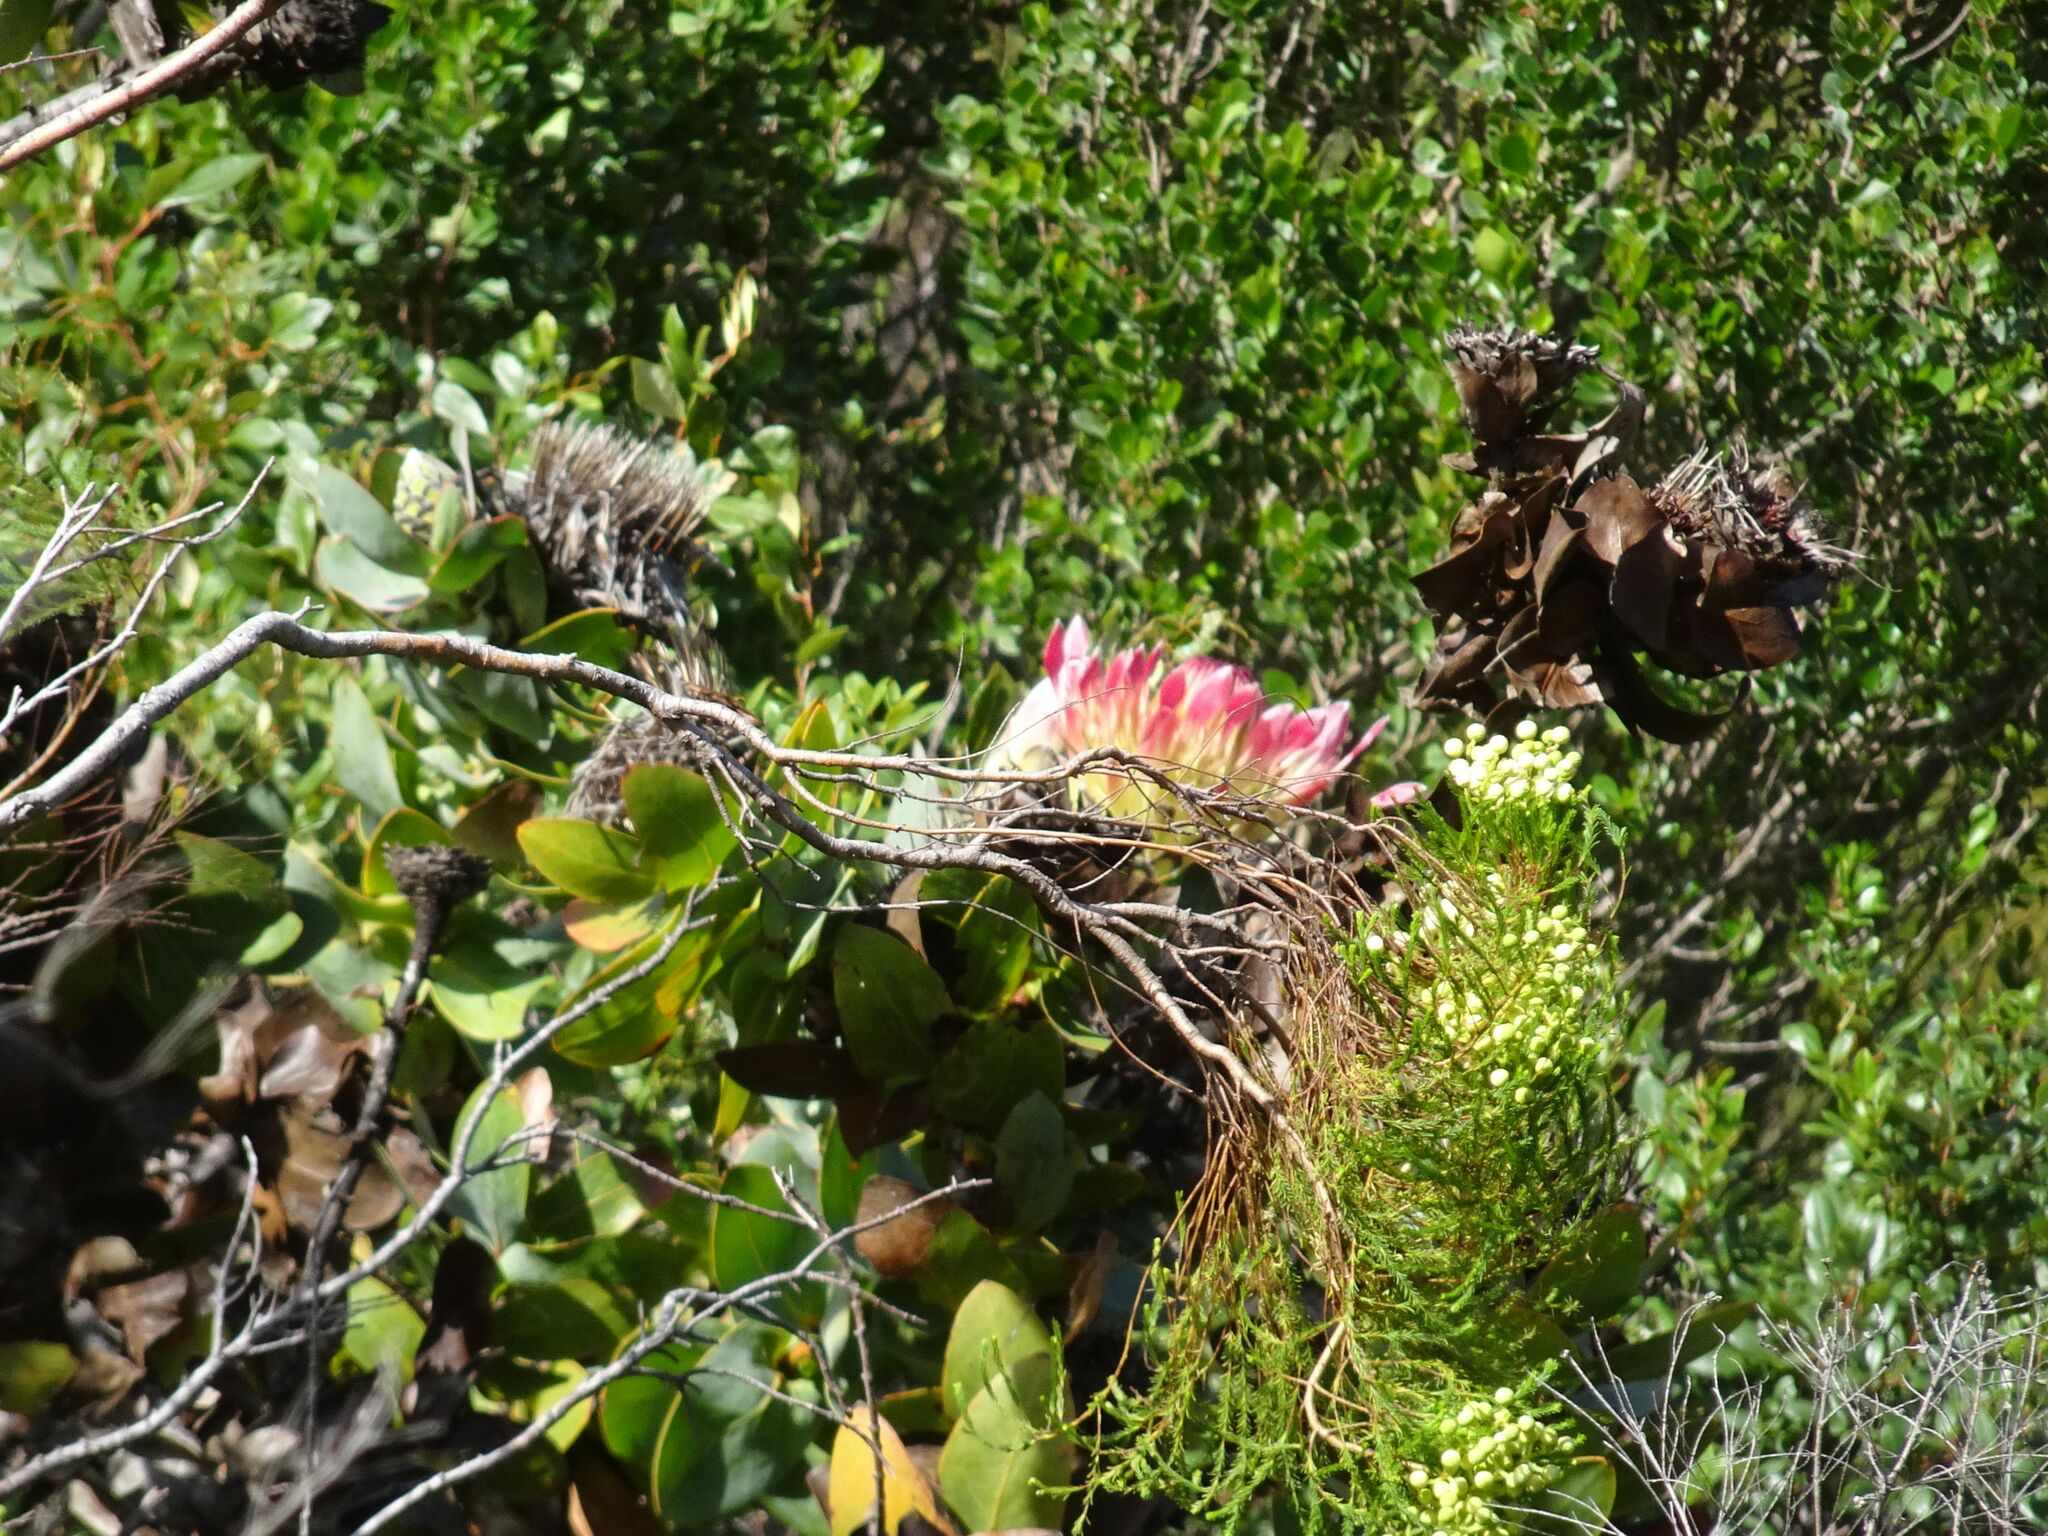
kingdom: Plantae
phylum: Tracheophyta
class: Magnoliopsida
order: Proteales
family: Proteaceae
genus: Protea
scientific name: Protea eximia
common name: Broad-leaved sugarbush
